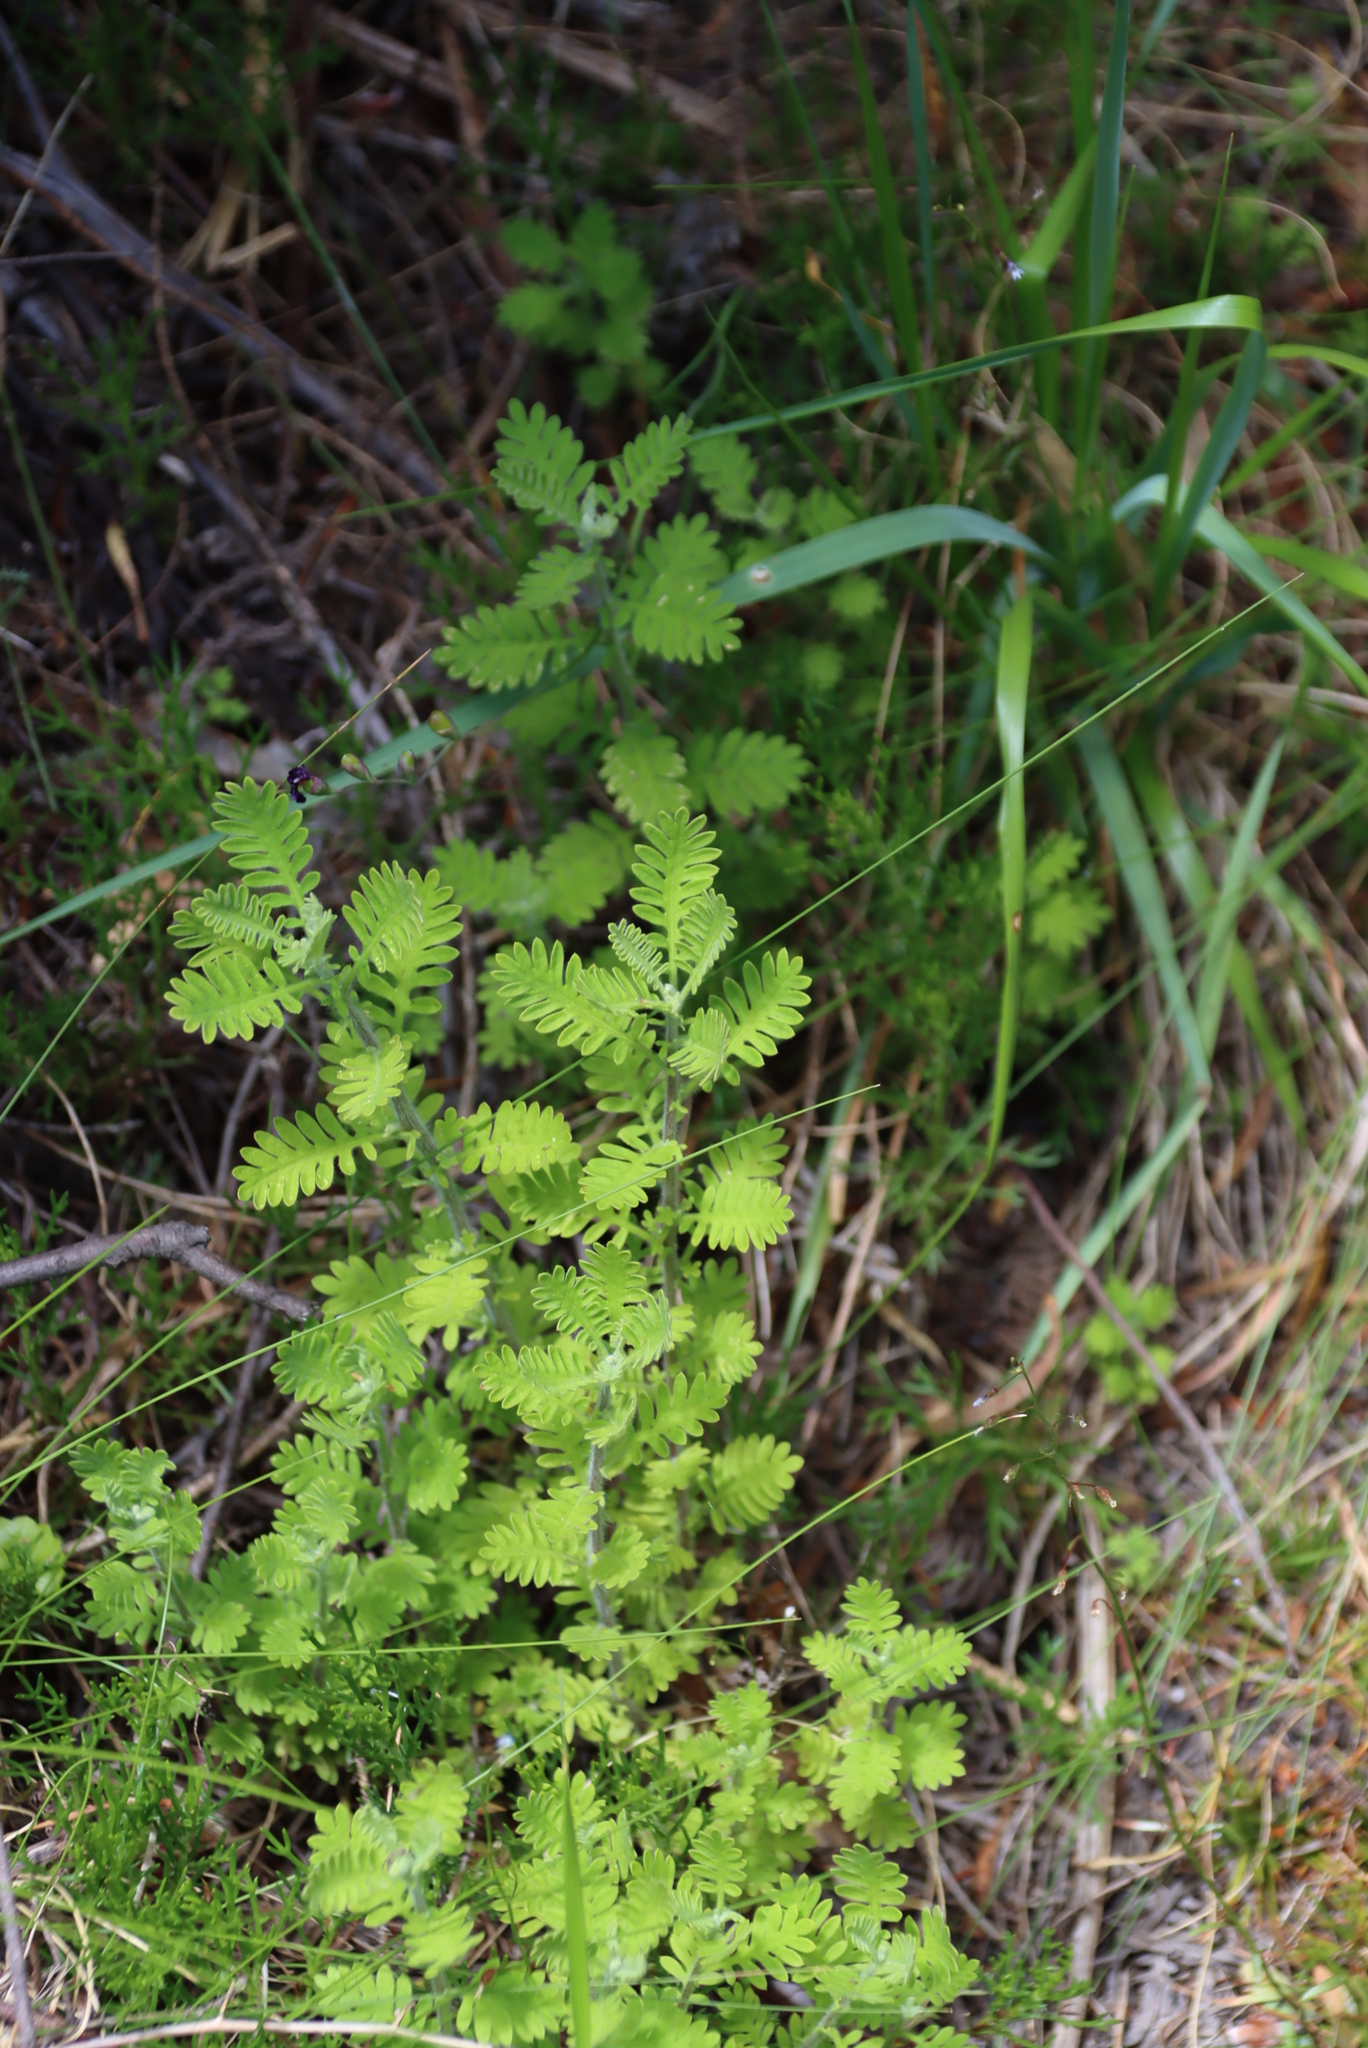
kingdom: Plantae
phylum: Tracheophyta
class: Magnoliopsida
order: Asterales
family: Asteraceae
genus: Hippia
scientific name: Hippia frutescens
